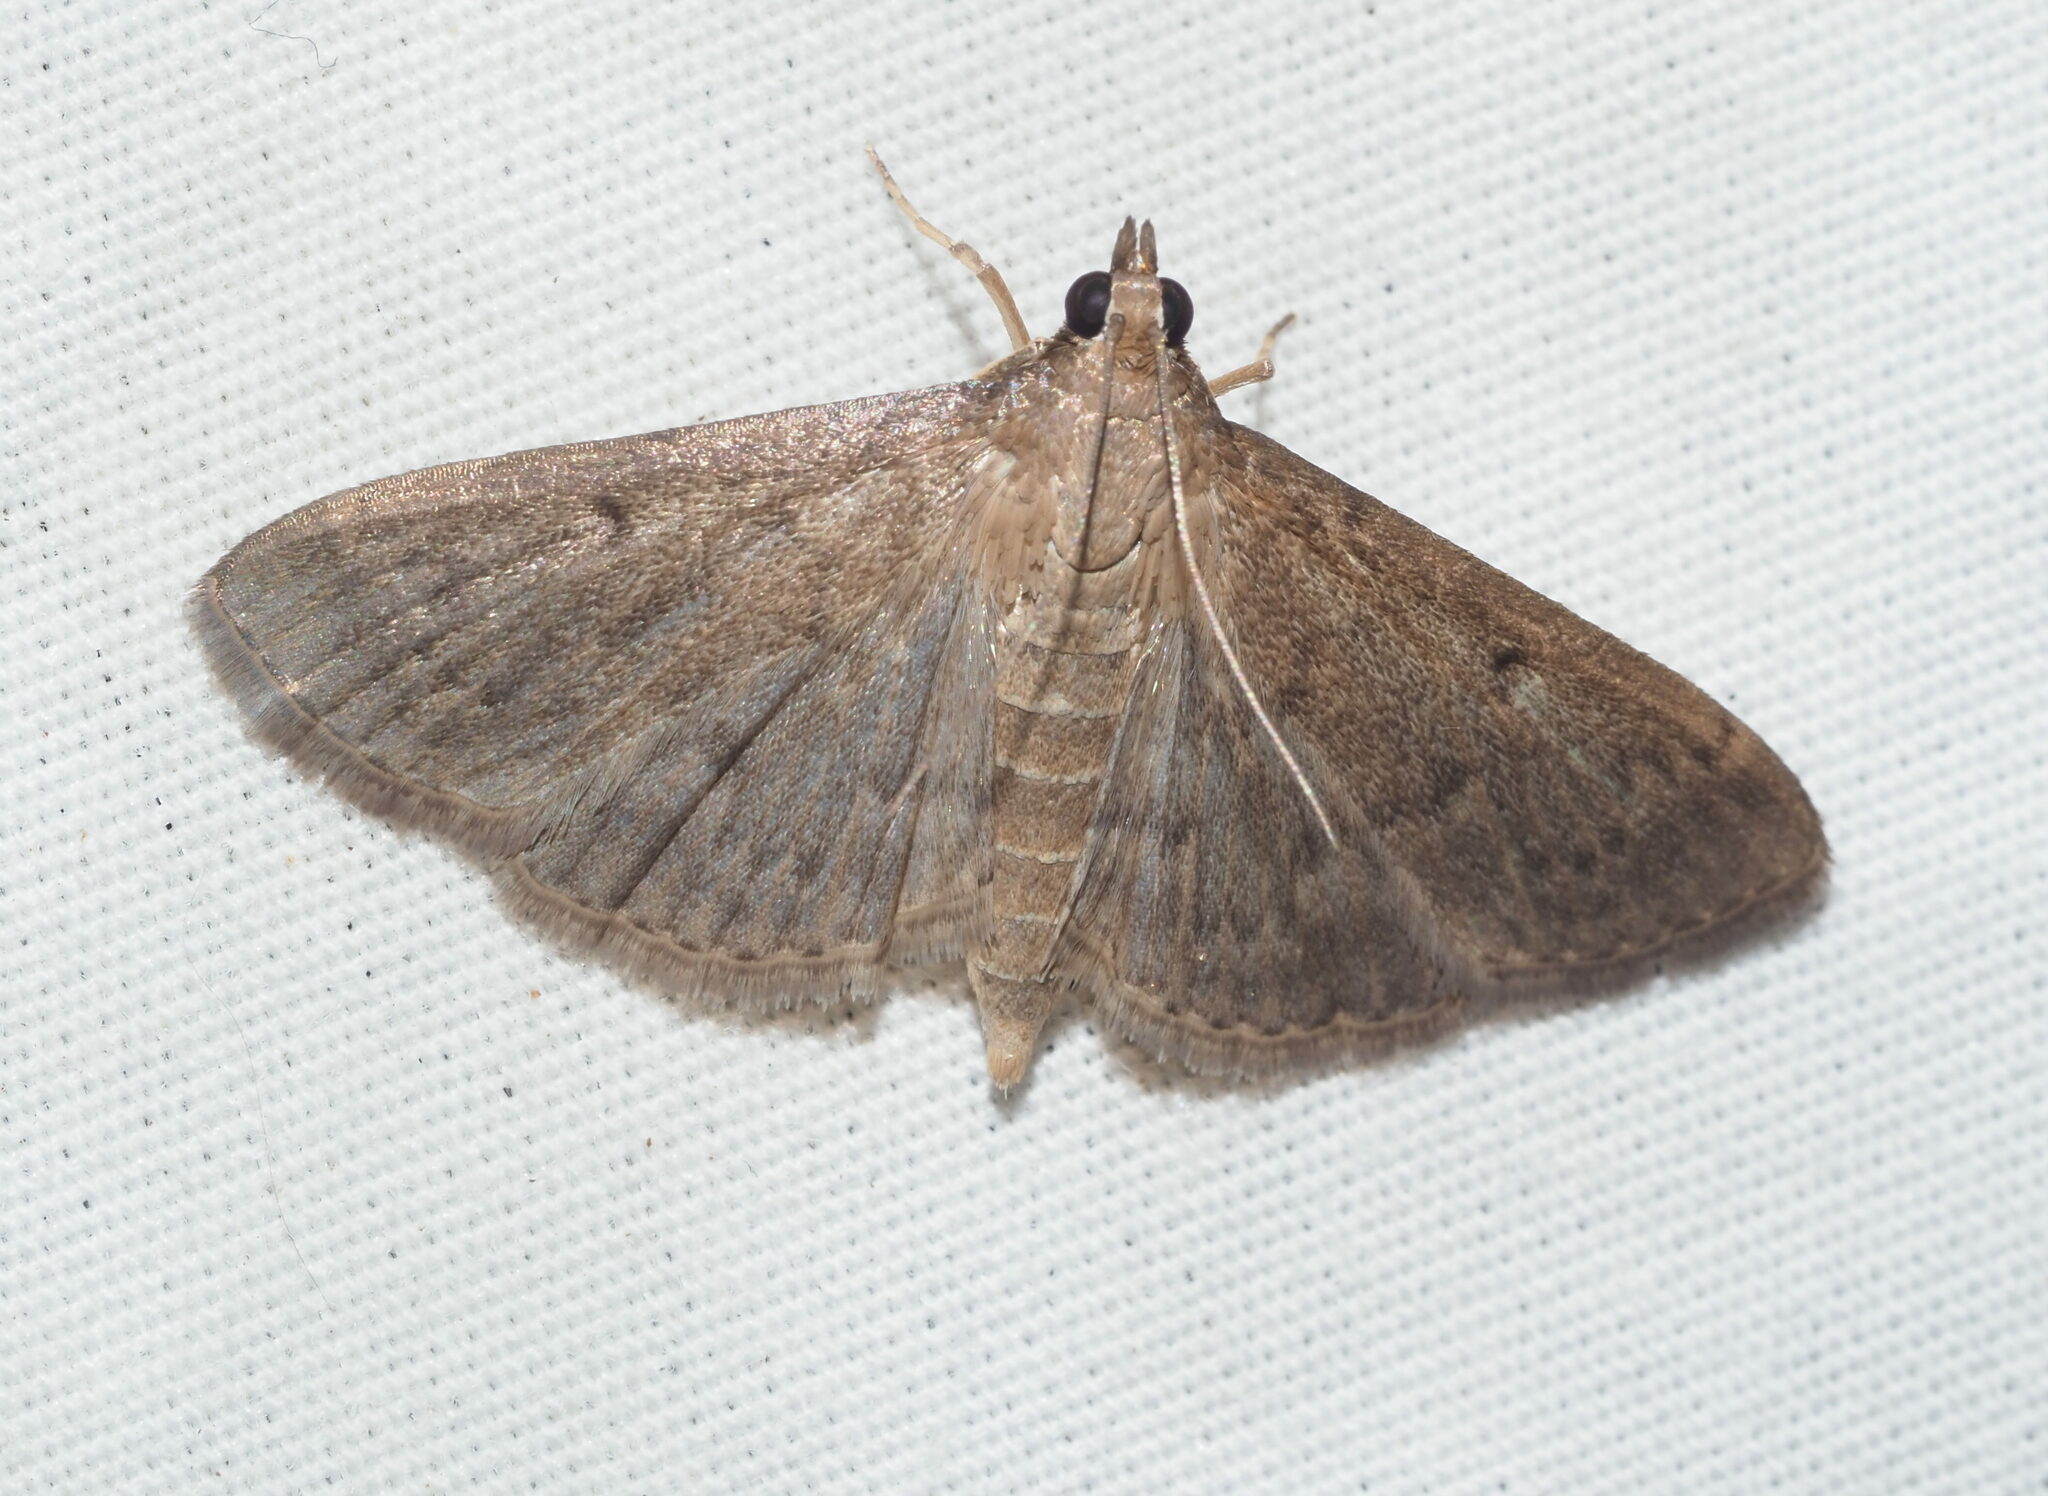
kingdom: Animalia
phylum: Arthropoda
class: Insecta
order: Lepidoptera
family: Crambidae
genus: Herpetogramma
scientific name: Herpetogramma licarsisalis
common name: Grass webworm
